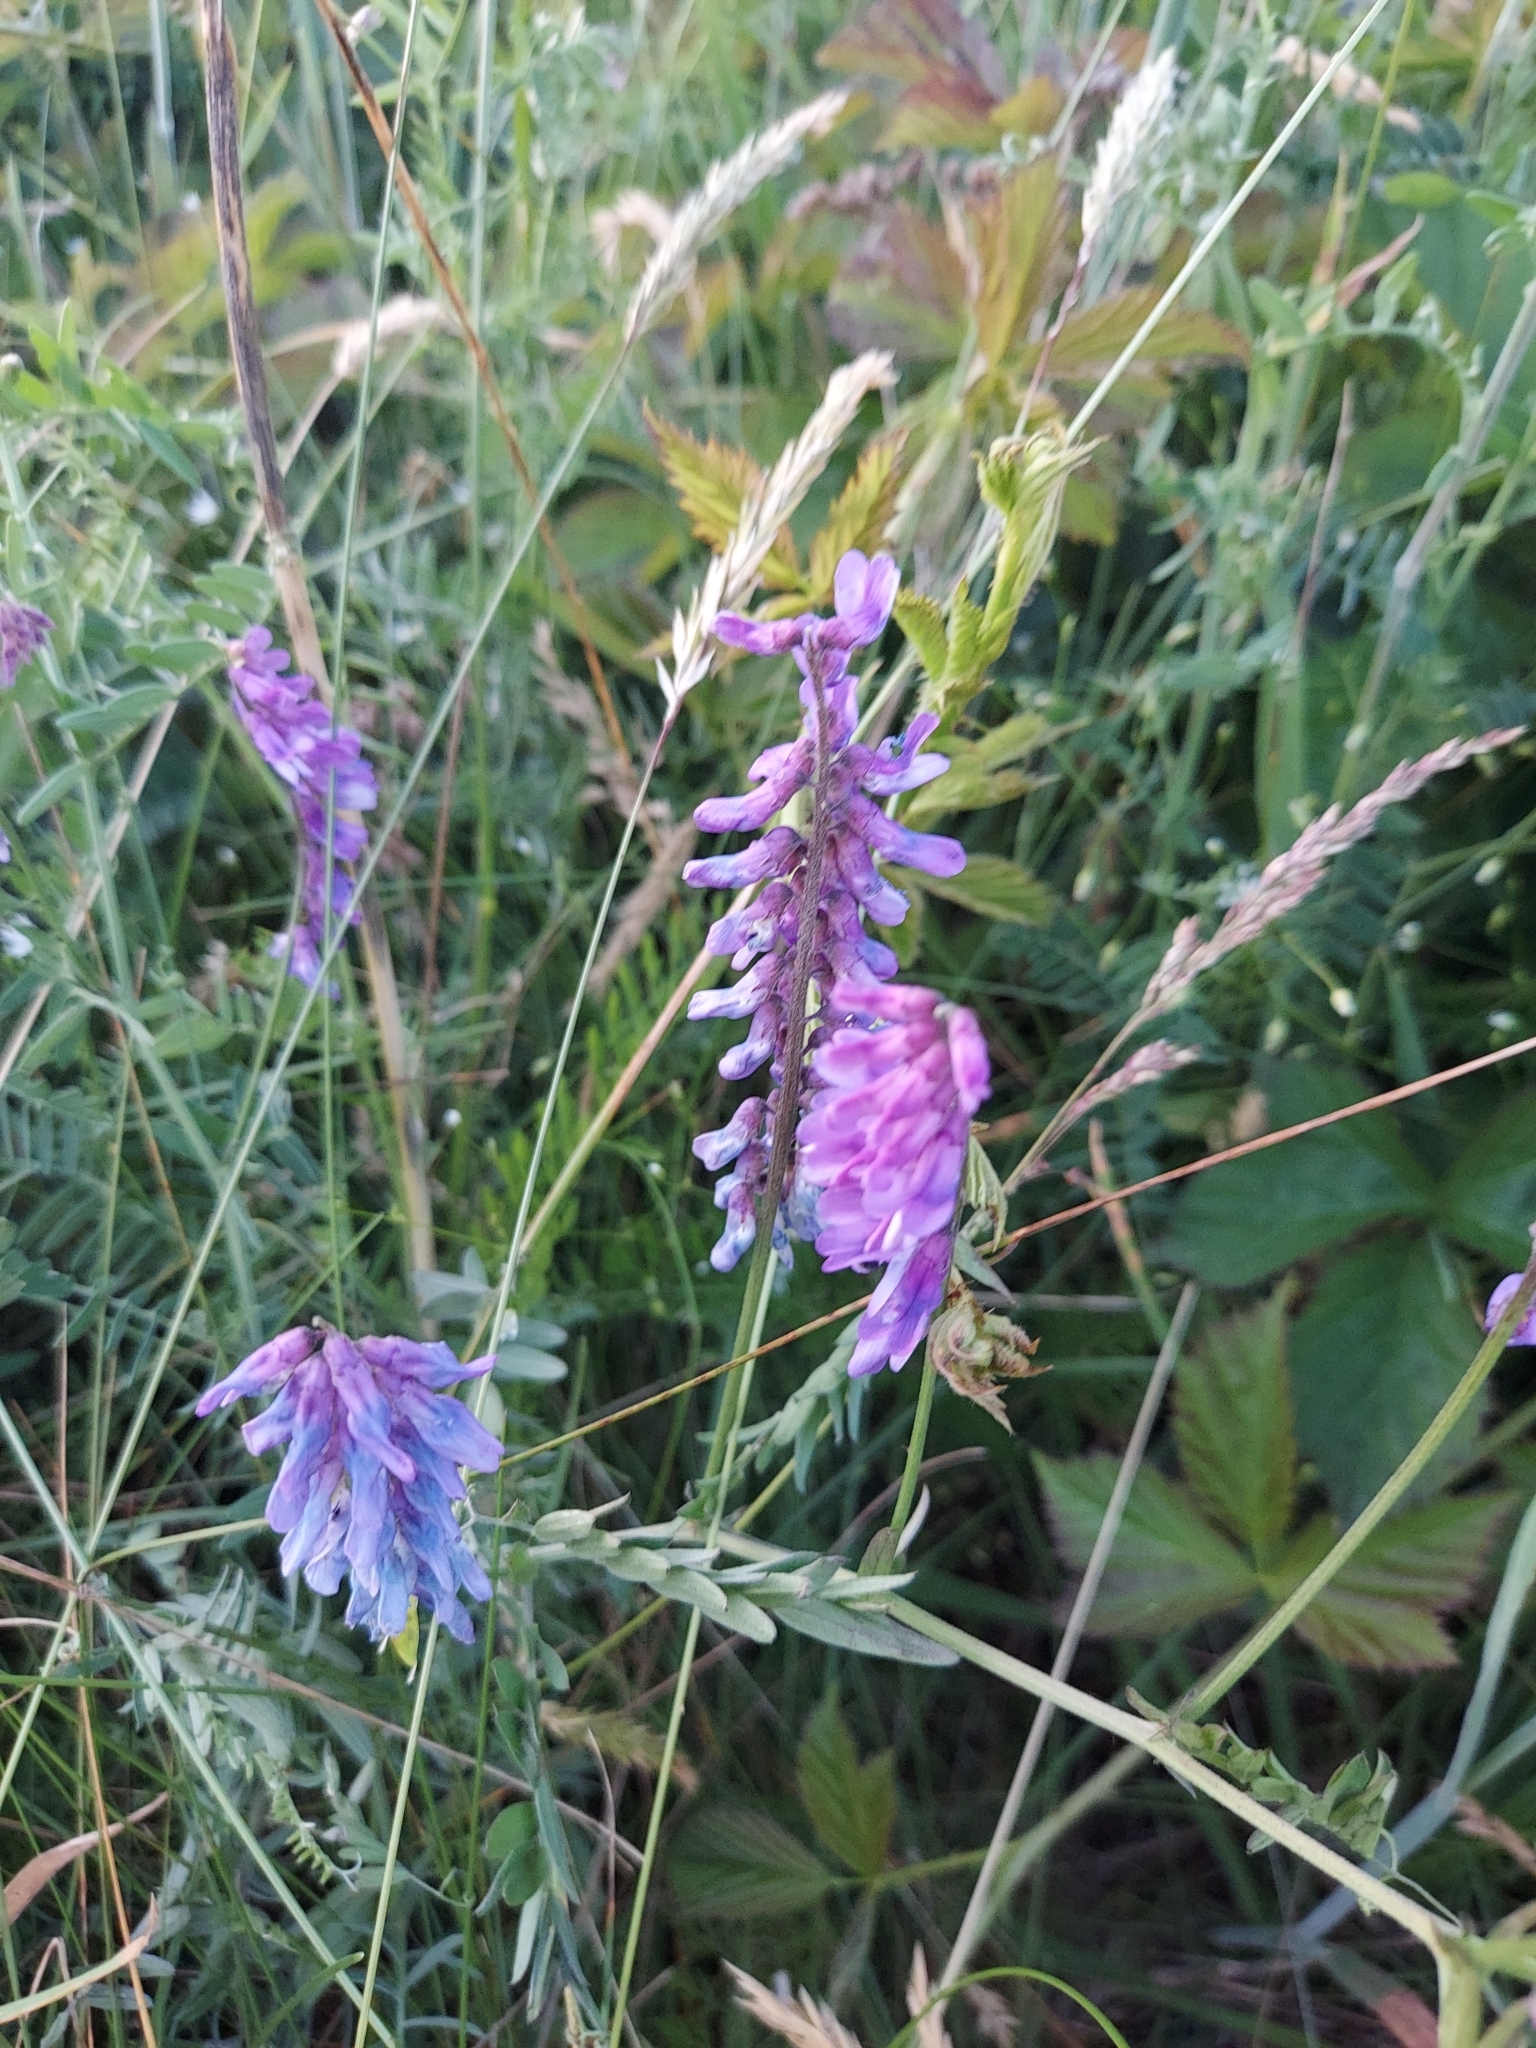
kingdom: Plantae
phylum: Tracheophyta
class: Magnoliopsida
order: Fabales
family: Fabaceae
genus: Vicia
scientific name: Vicia cracca
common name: Bird vetch
